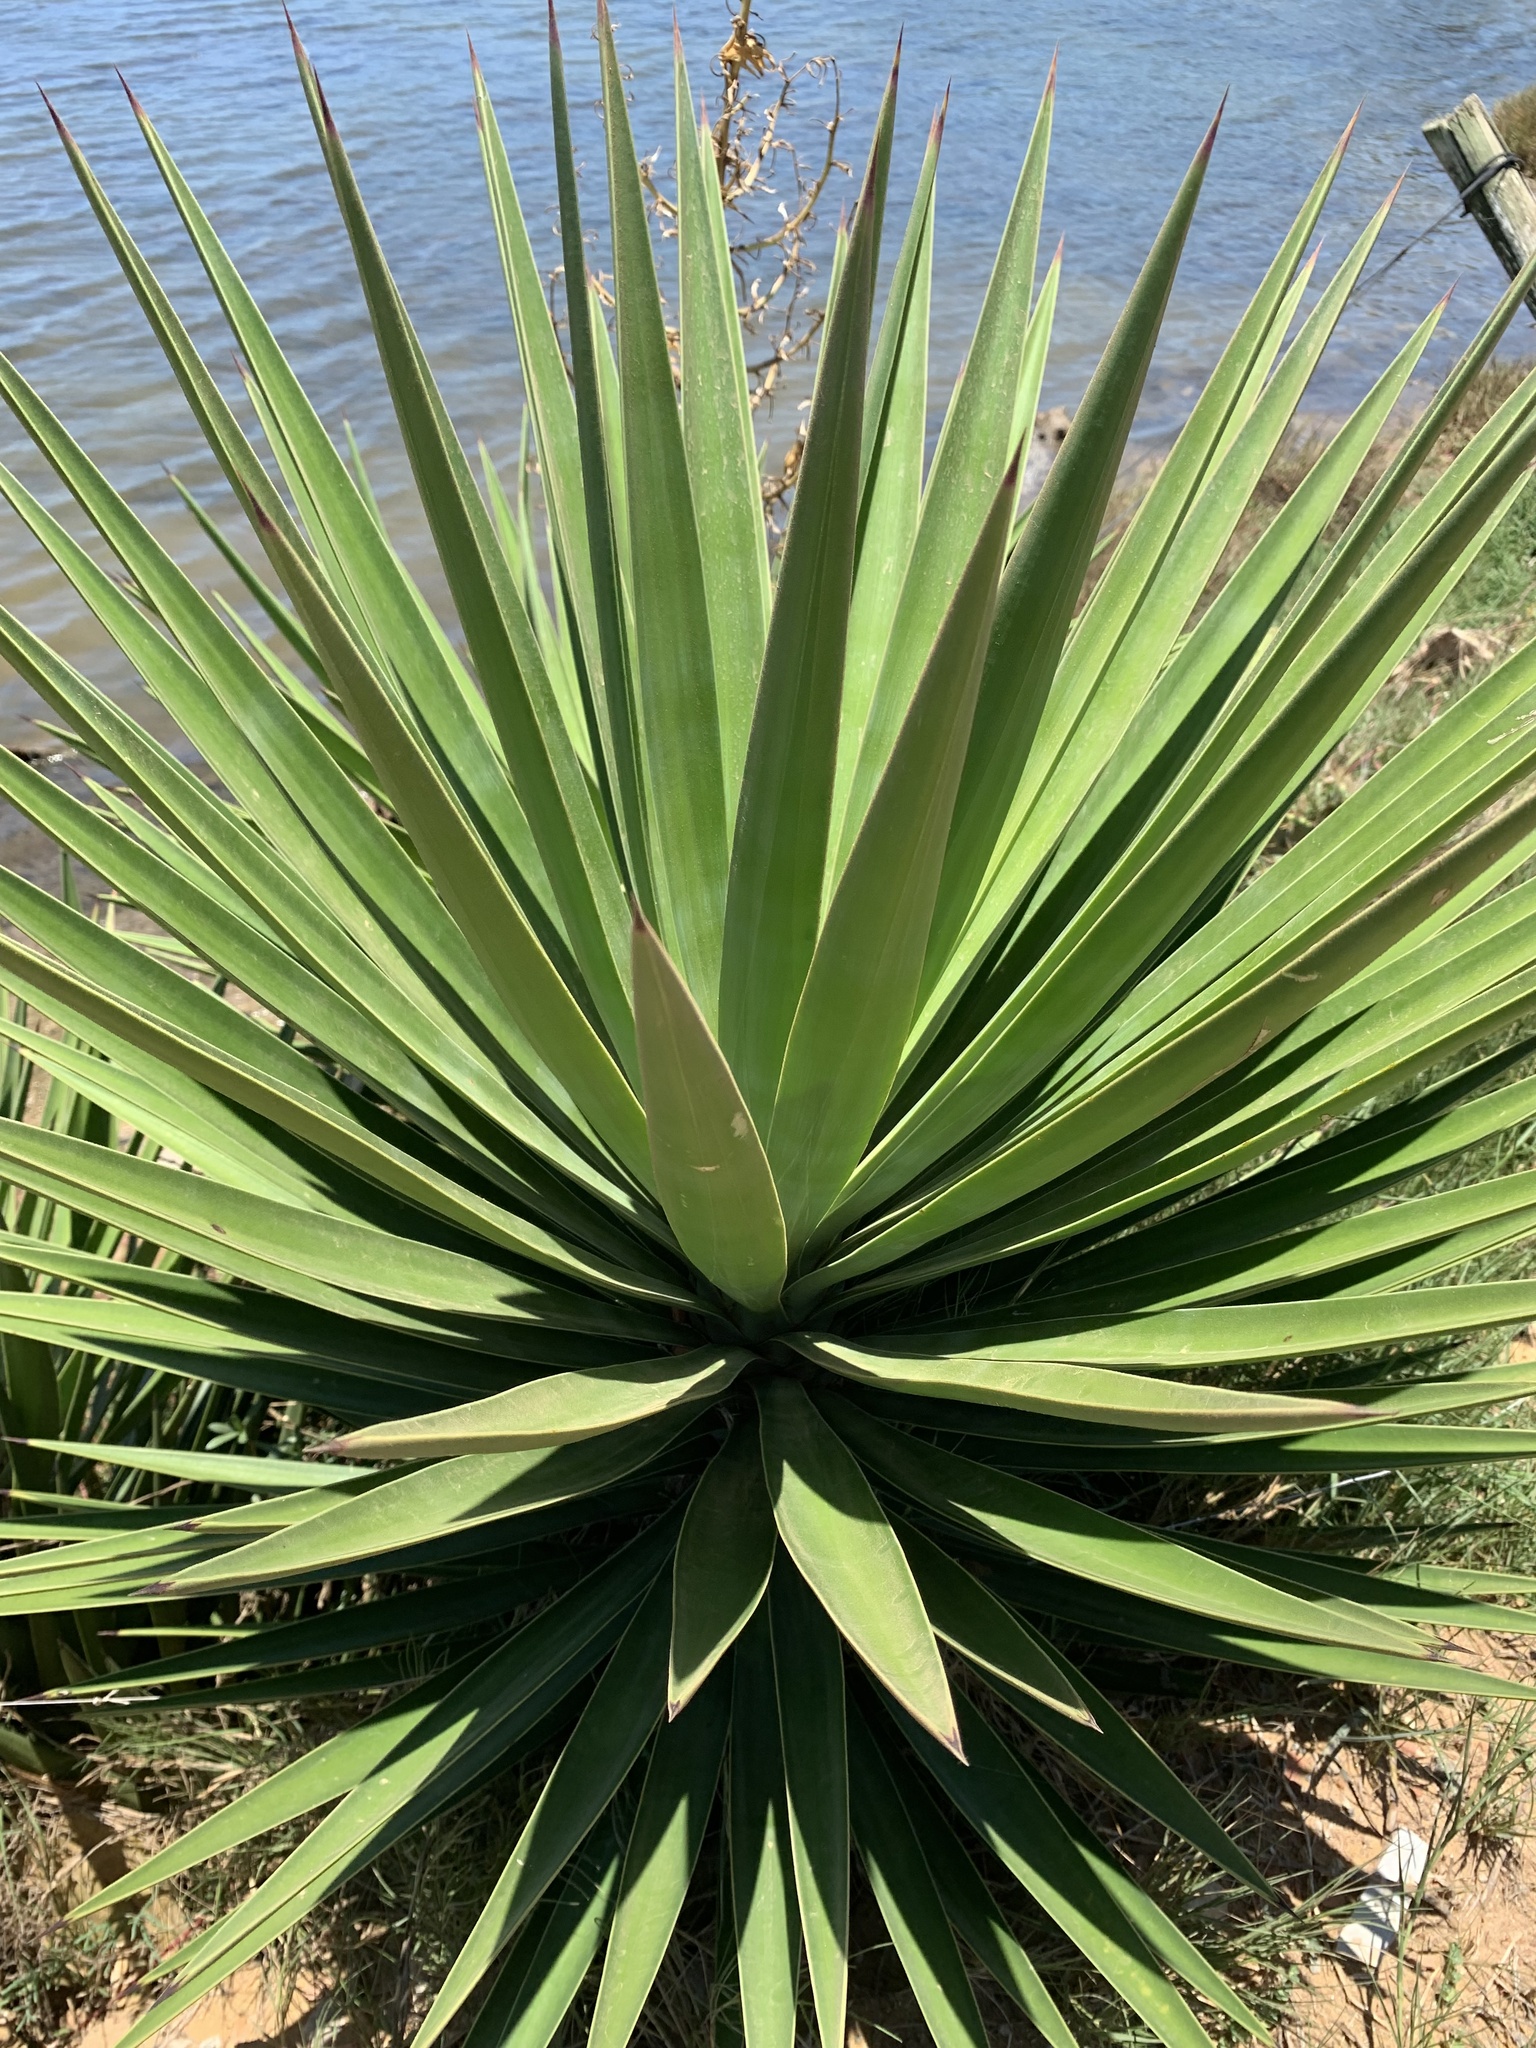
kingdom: Plantae
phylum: Tracheophyta
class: Liliopsida
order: Asparagales
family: Asparagaceae
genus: Agave
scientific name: Agave angustifolia
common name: Mescal agave
